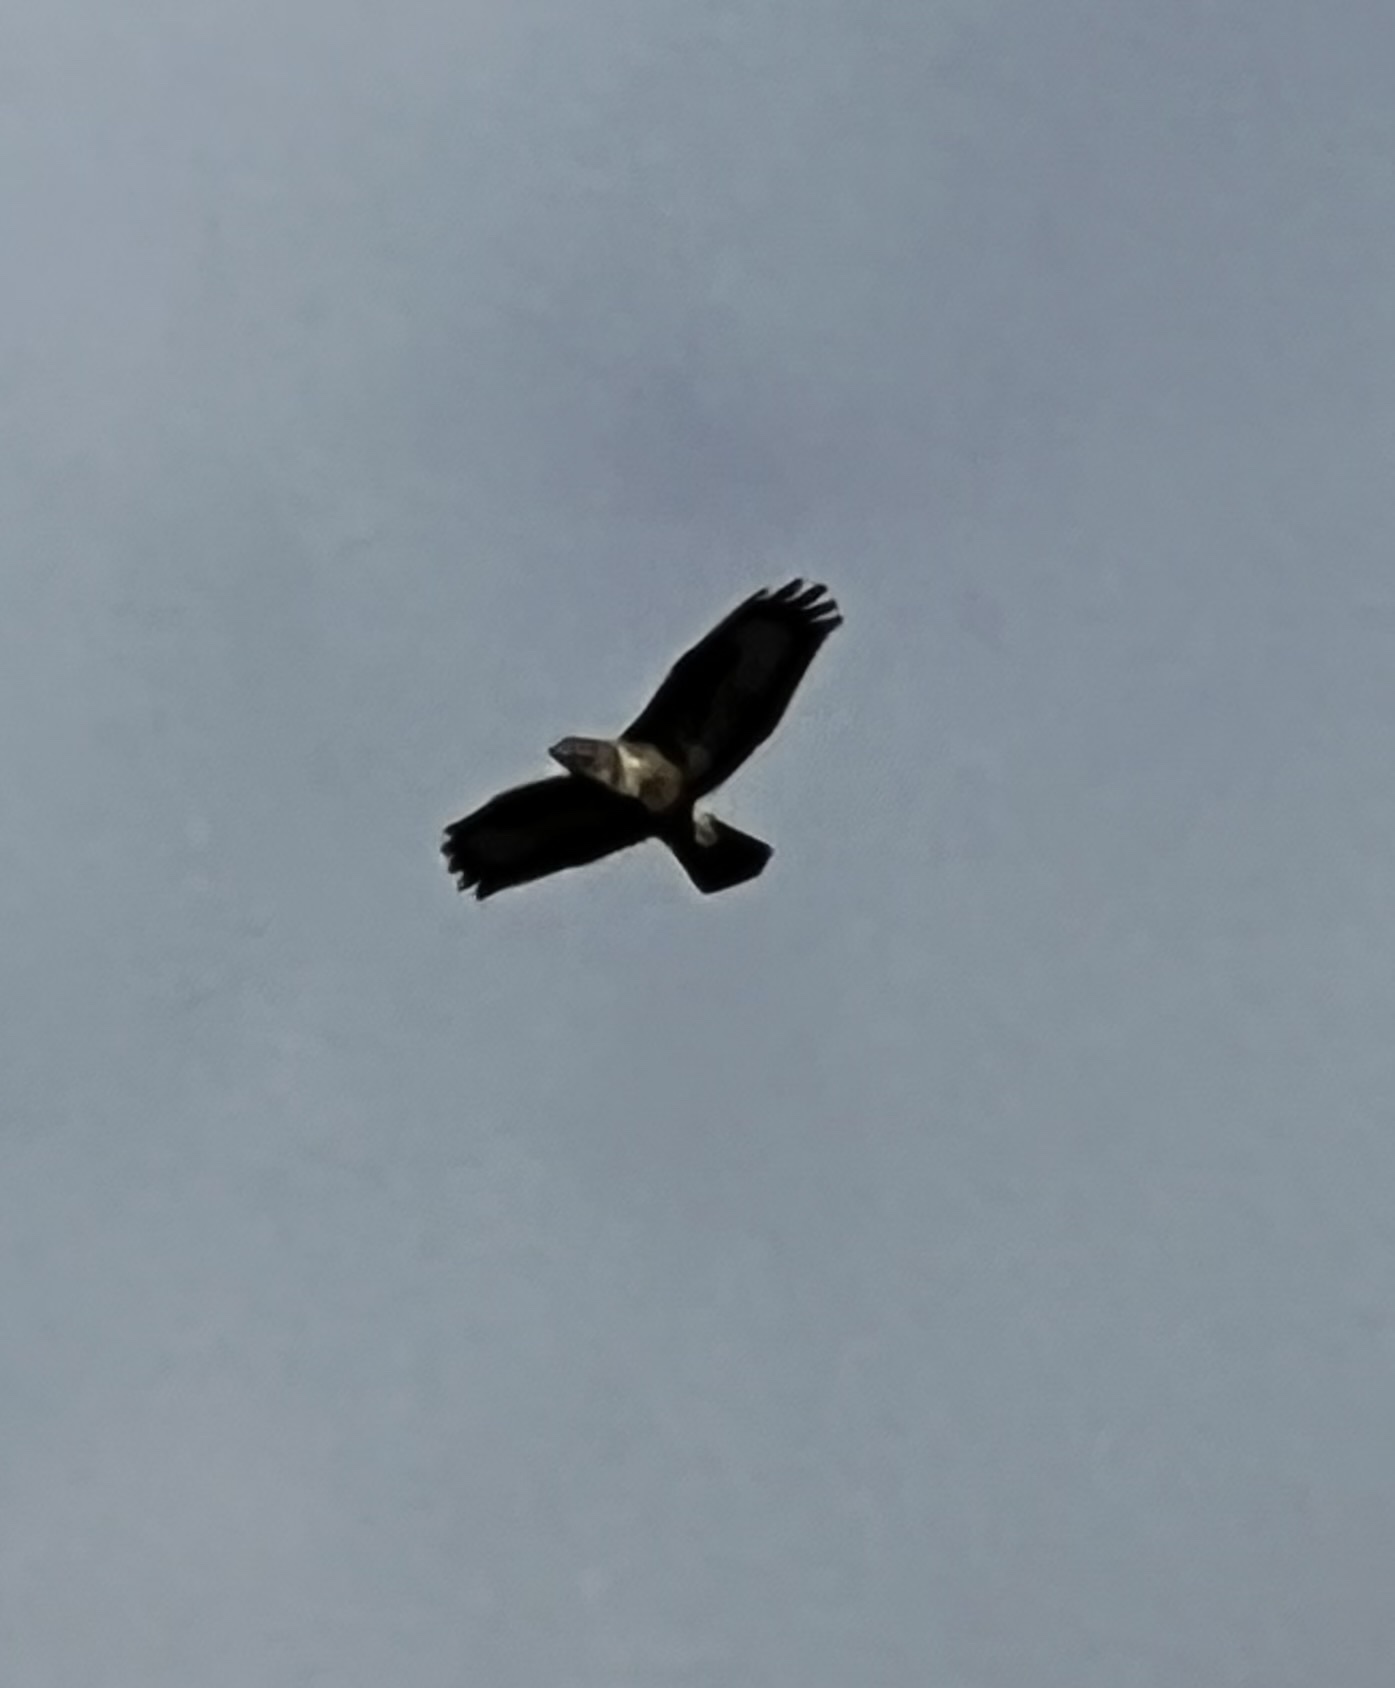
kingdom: Animalia
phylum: Chordata
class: Aves
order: Accipitriformes
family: Accipitridae
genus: Buteo
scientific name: Buteo buteo
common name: Common buzzard
